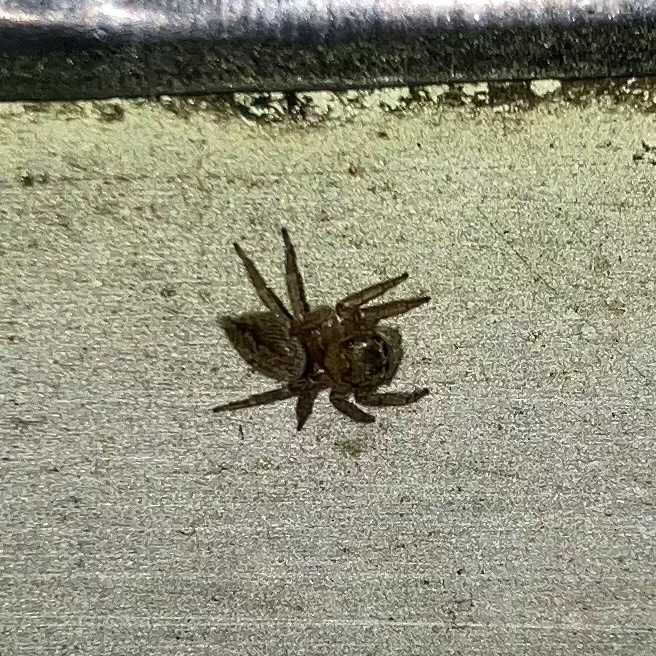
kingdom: Animalia
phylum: Arthropoda
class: Arachnida
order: Araneae
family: Salticidae
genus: Hasarius
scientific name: Hasarius adansoni
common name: Jumping spider
